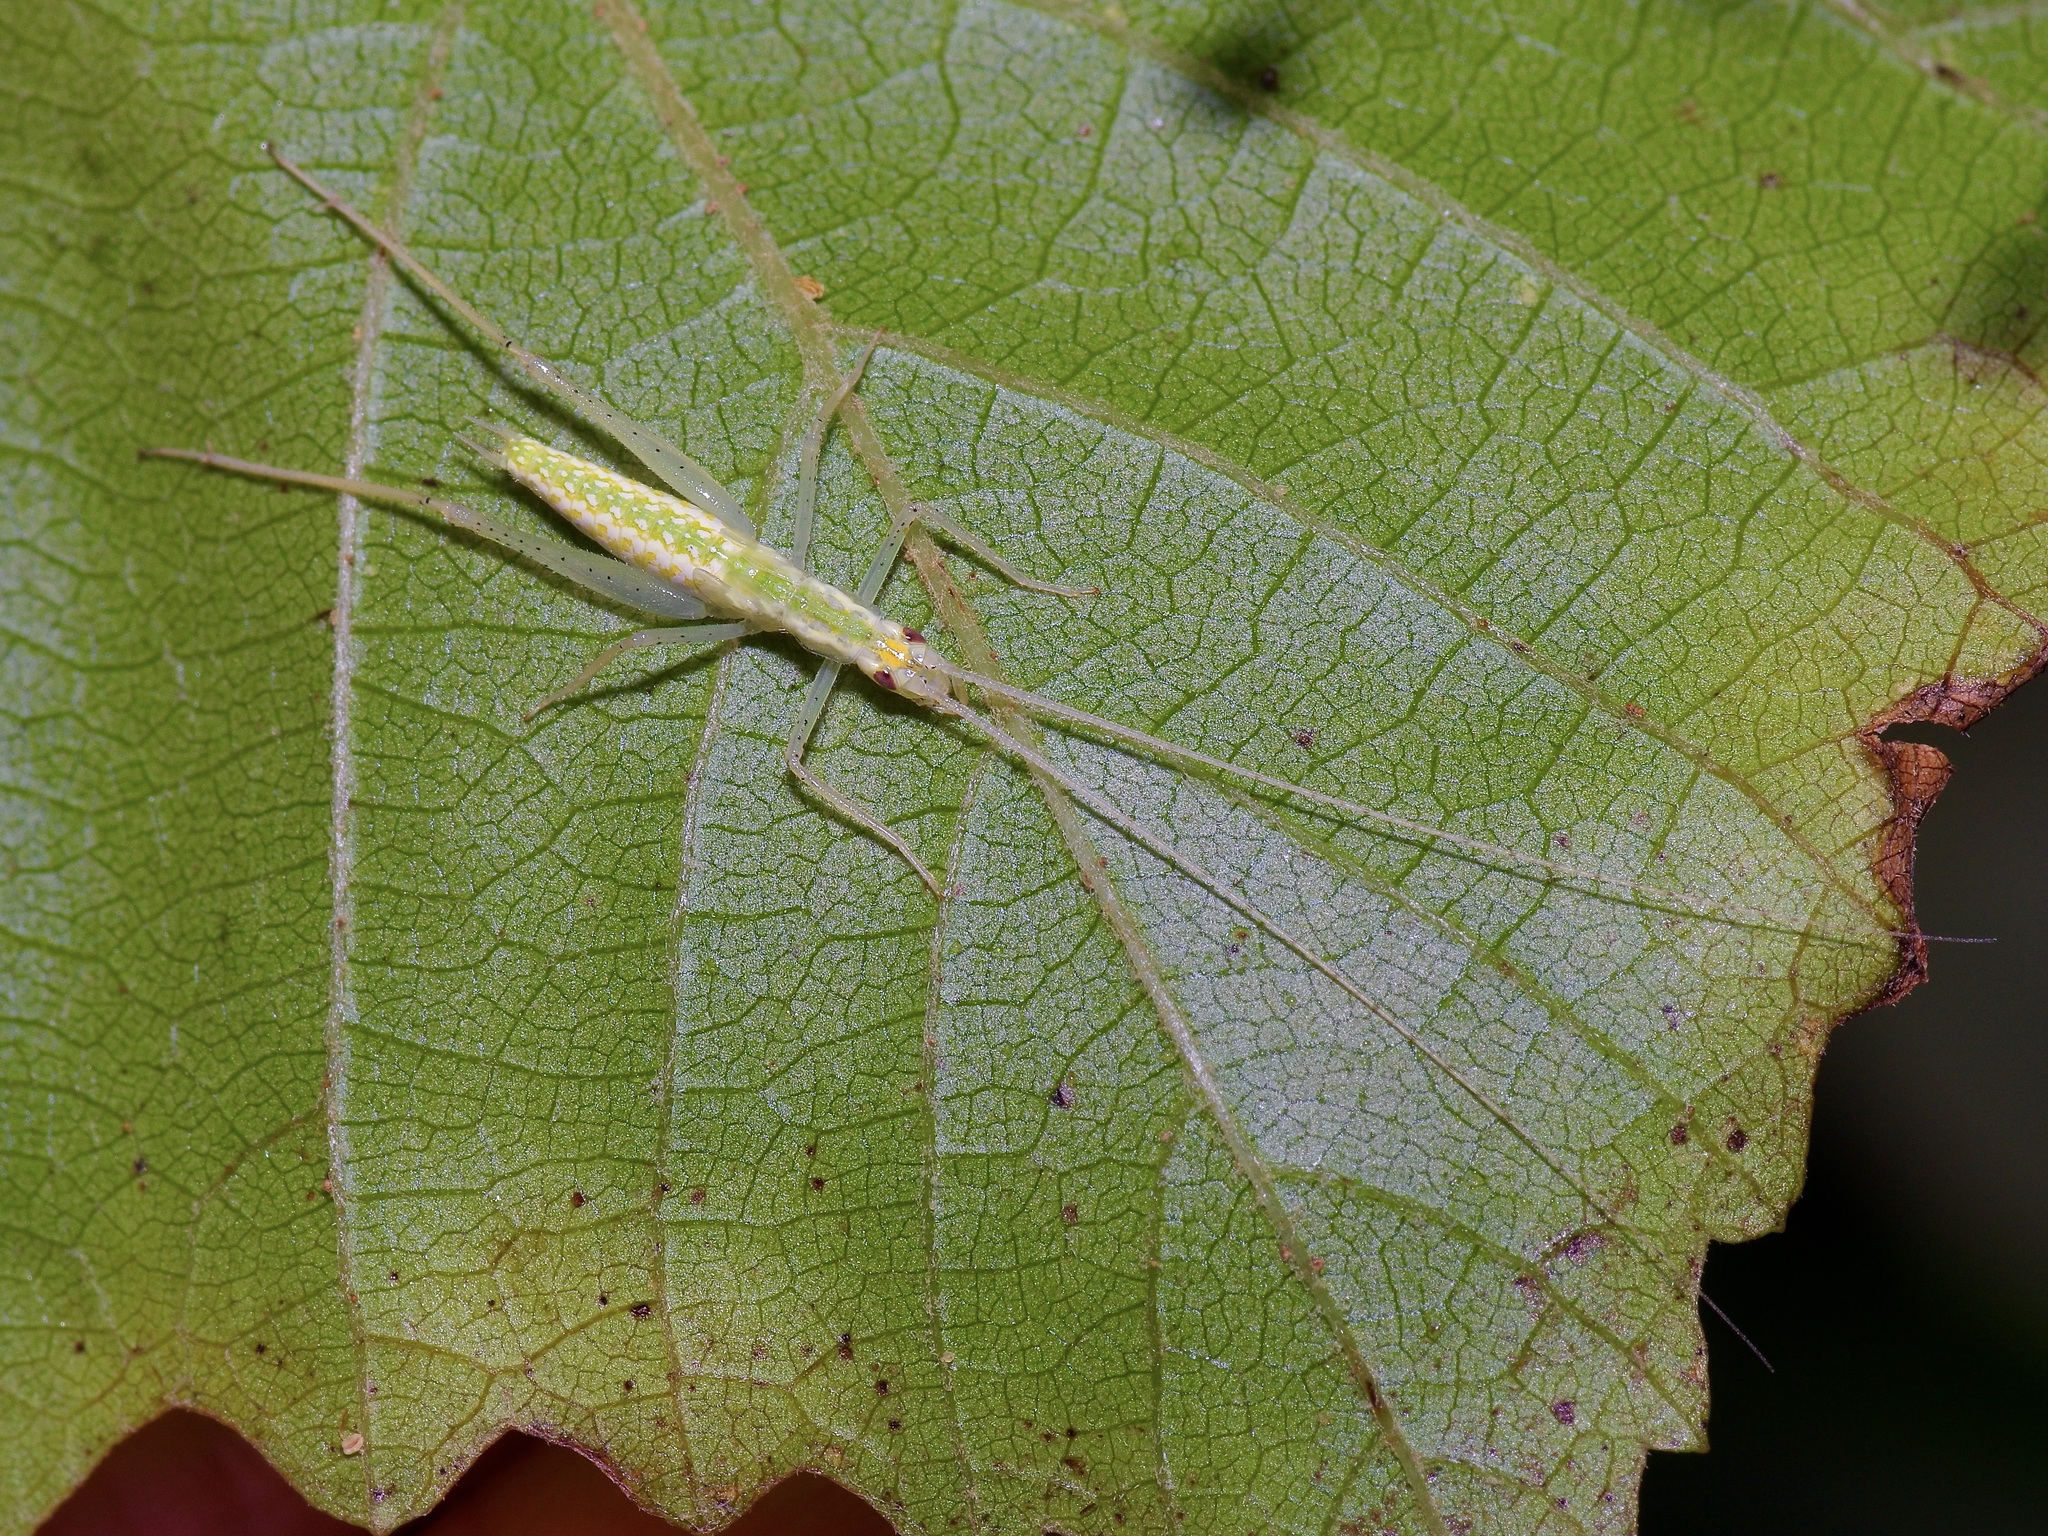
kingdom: Animalia
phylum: Arthropoda
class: Insecta
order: Orthoptera
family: Gryllidae
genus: Oecanthus
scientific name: Oecanthus niveus
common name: Narrow-winged tree cricket
